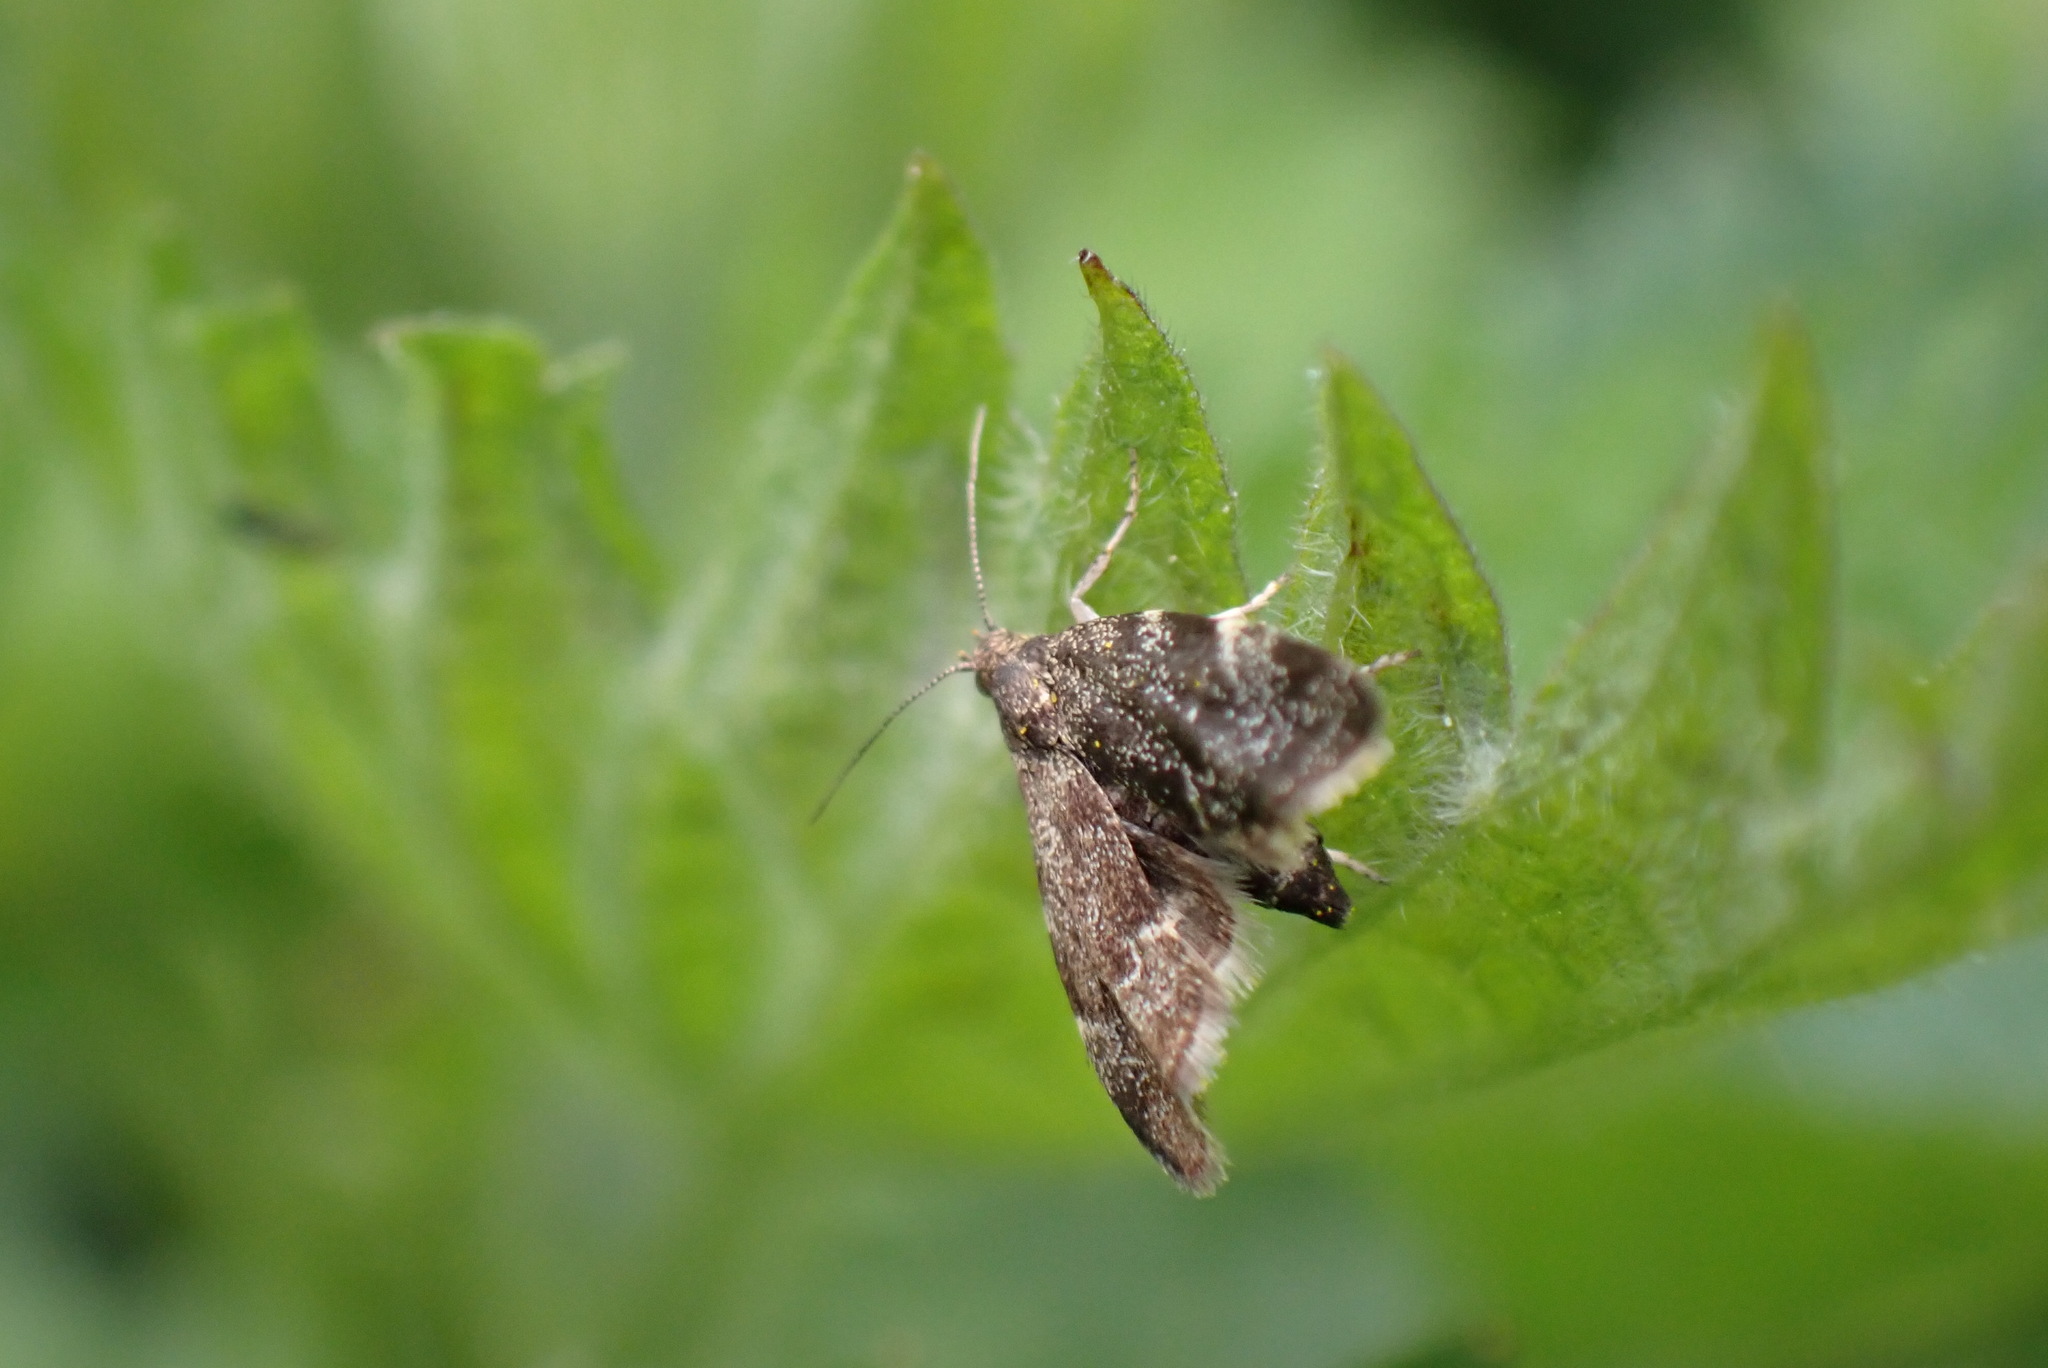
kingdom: Animalia
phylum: Arthropoda
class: Insecta
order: Lepidoptera
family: Choreutidae
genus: Anthophila
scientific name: Anthophila fabriciana
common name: Nettle-tap
